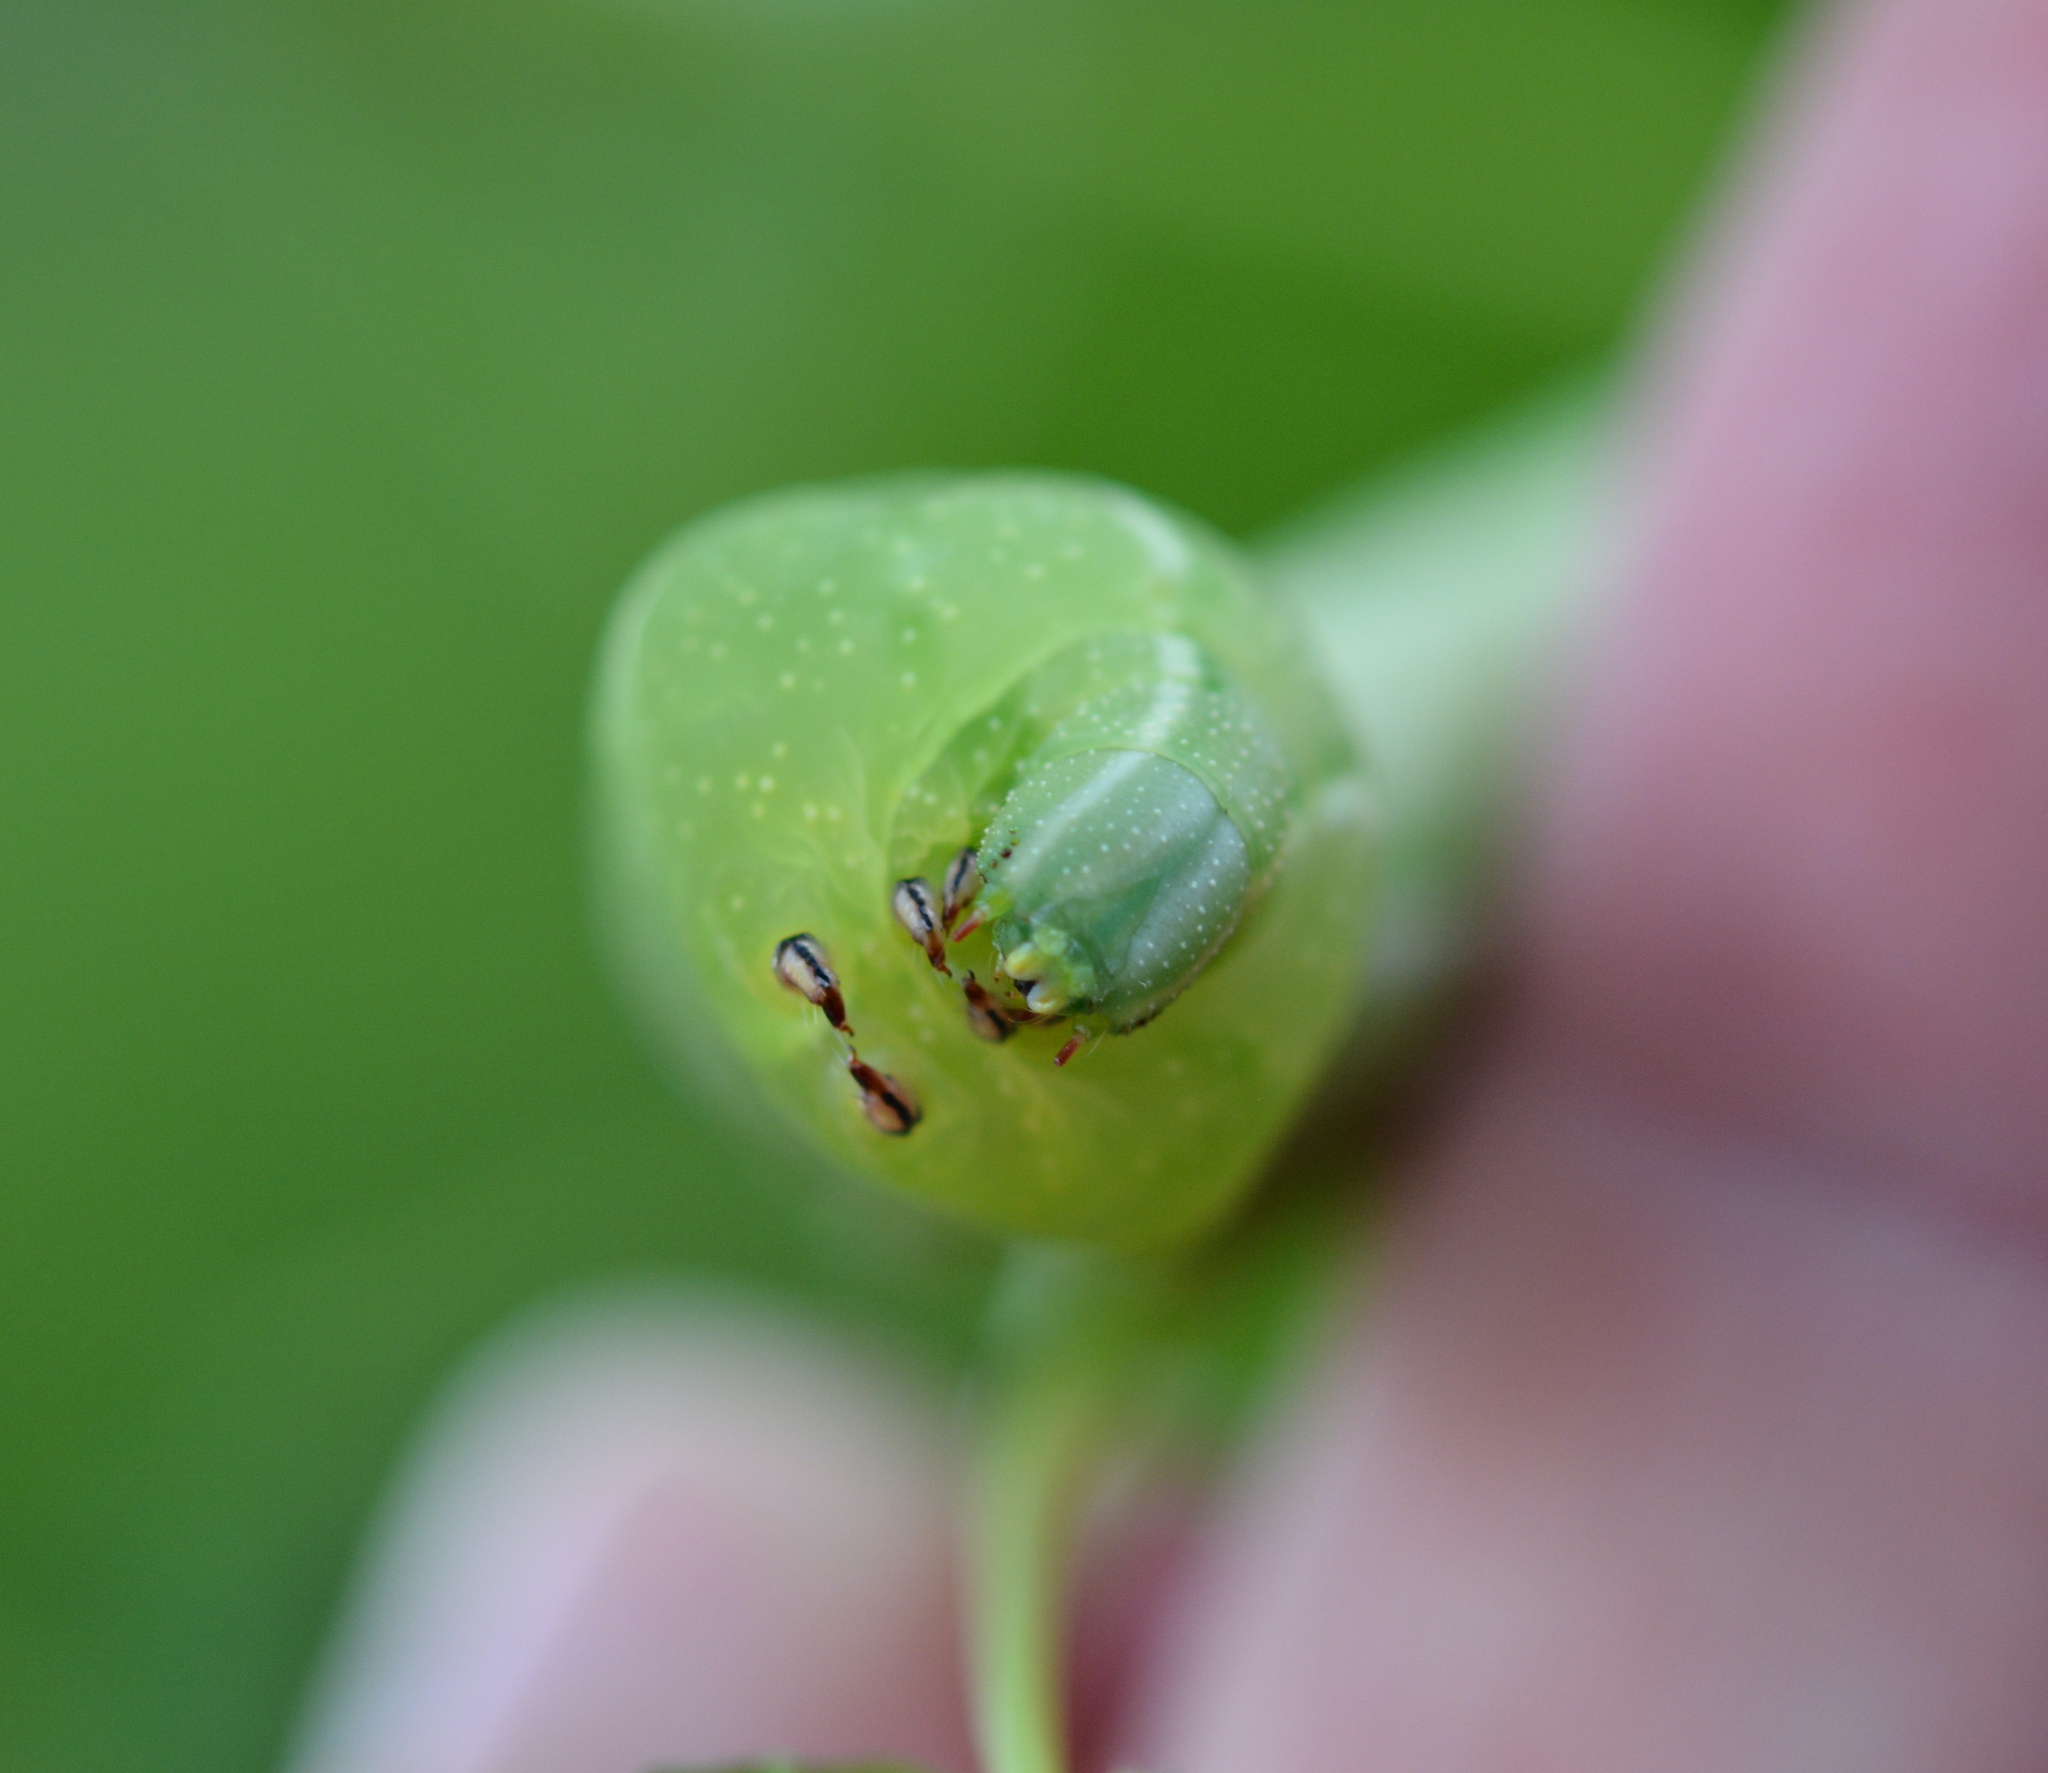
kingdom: Animalia
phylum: Arthropoda
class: Insecta
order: Lepidoptera
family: Sphingidae
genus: Darapsa
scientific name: Darapsa myron
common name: Hog sphinx
